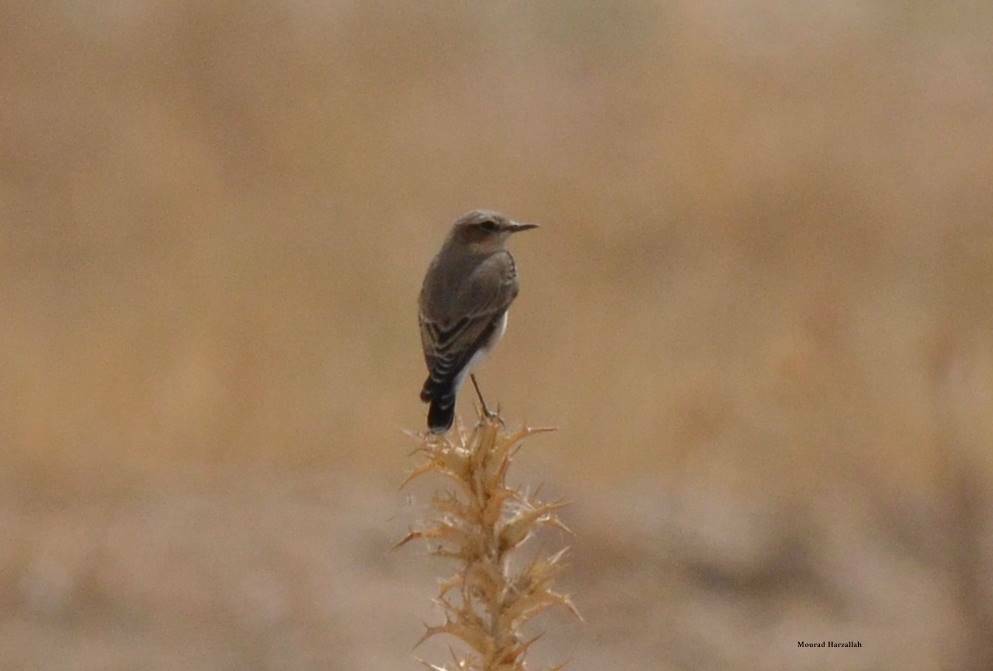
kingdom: Animalia
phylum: Chordata
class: Aves
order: Passeriformes
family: Muscicapidae
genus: Oenanthe
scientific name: Oenanthe oenanthe
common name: Northern wheatear
